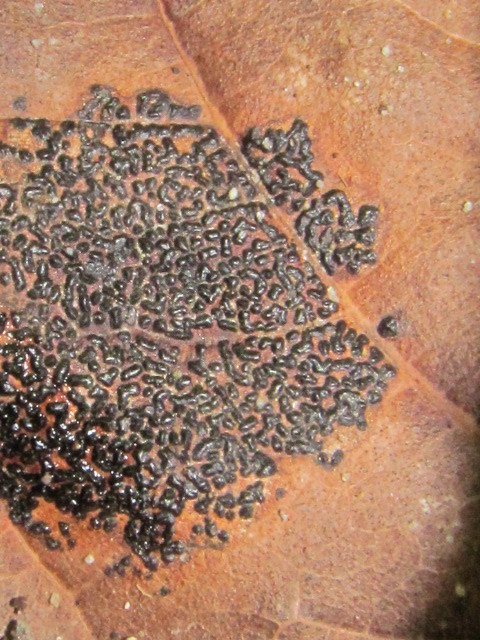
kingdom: Fungi
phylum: Ascomycota
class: Leotiomycetes
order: Rhytismatales
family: Rhytismataceae
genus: Rhytisma
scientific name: Rhytisma punctatum
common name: Speckled tar spot
